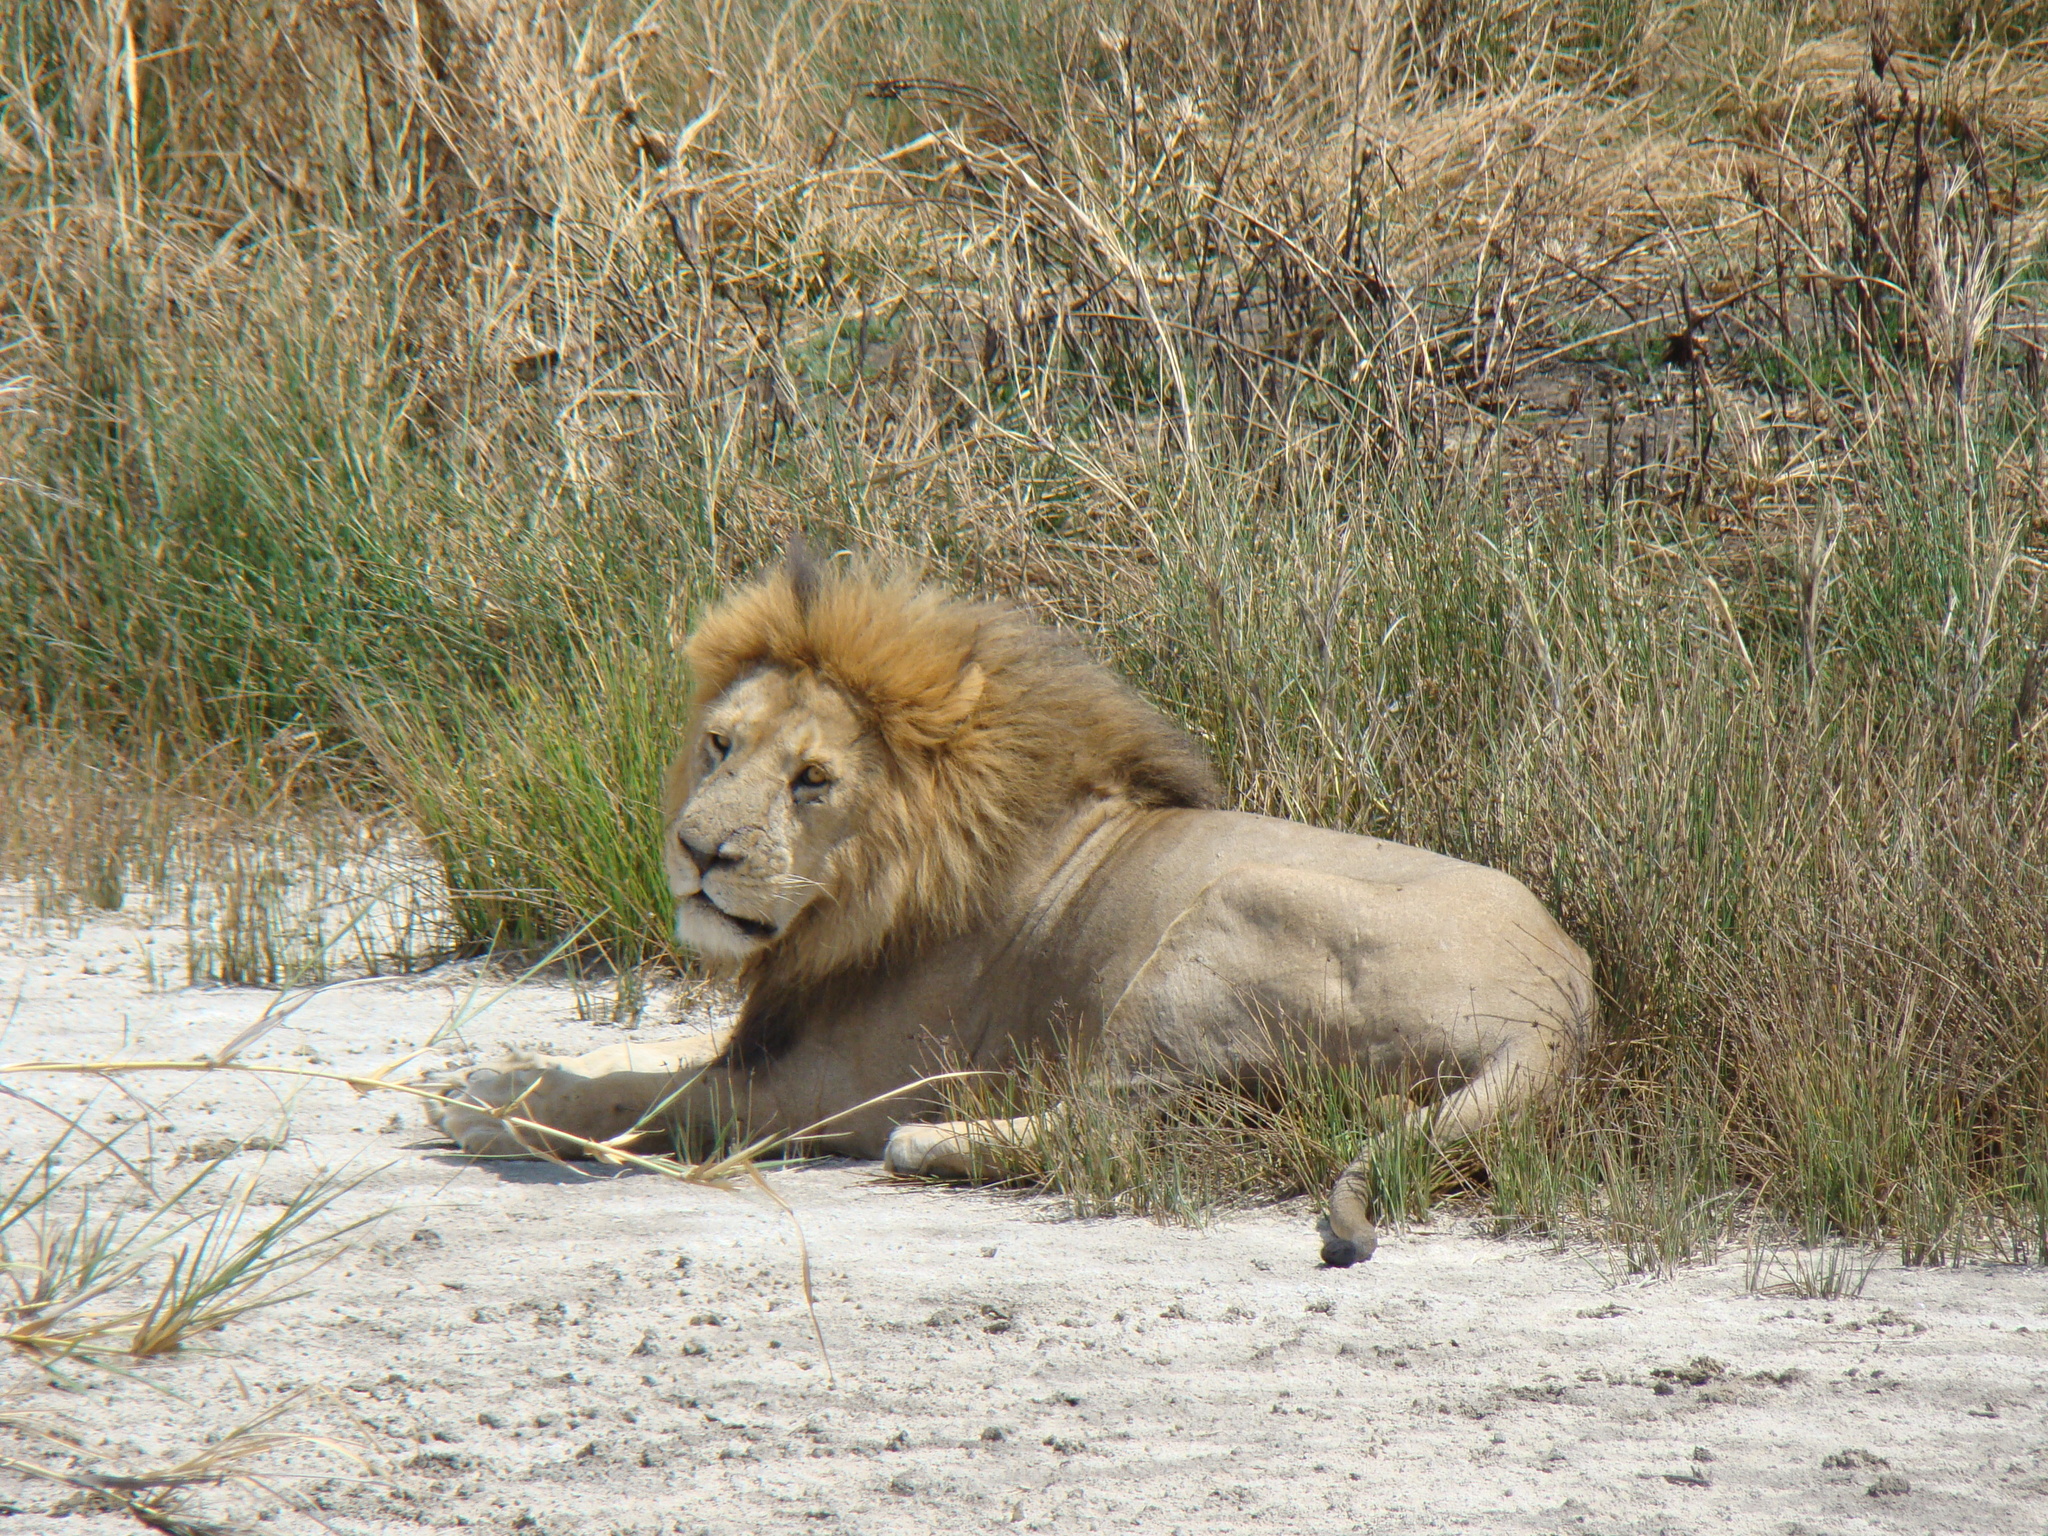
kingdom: Animalia
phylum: Chordata
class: Mammalia
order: Carnivora
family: Felidae
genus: Panthera
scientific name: Panthera leo
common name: Lion
